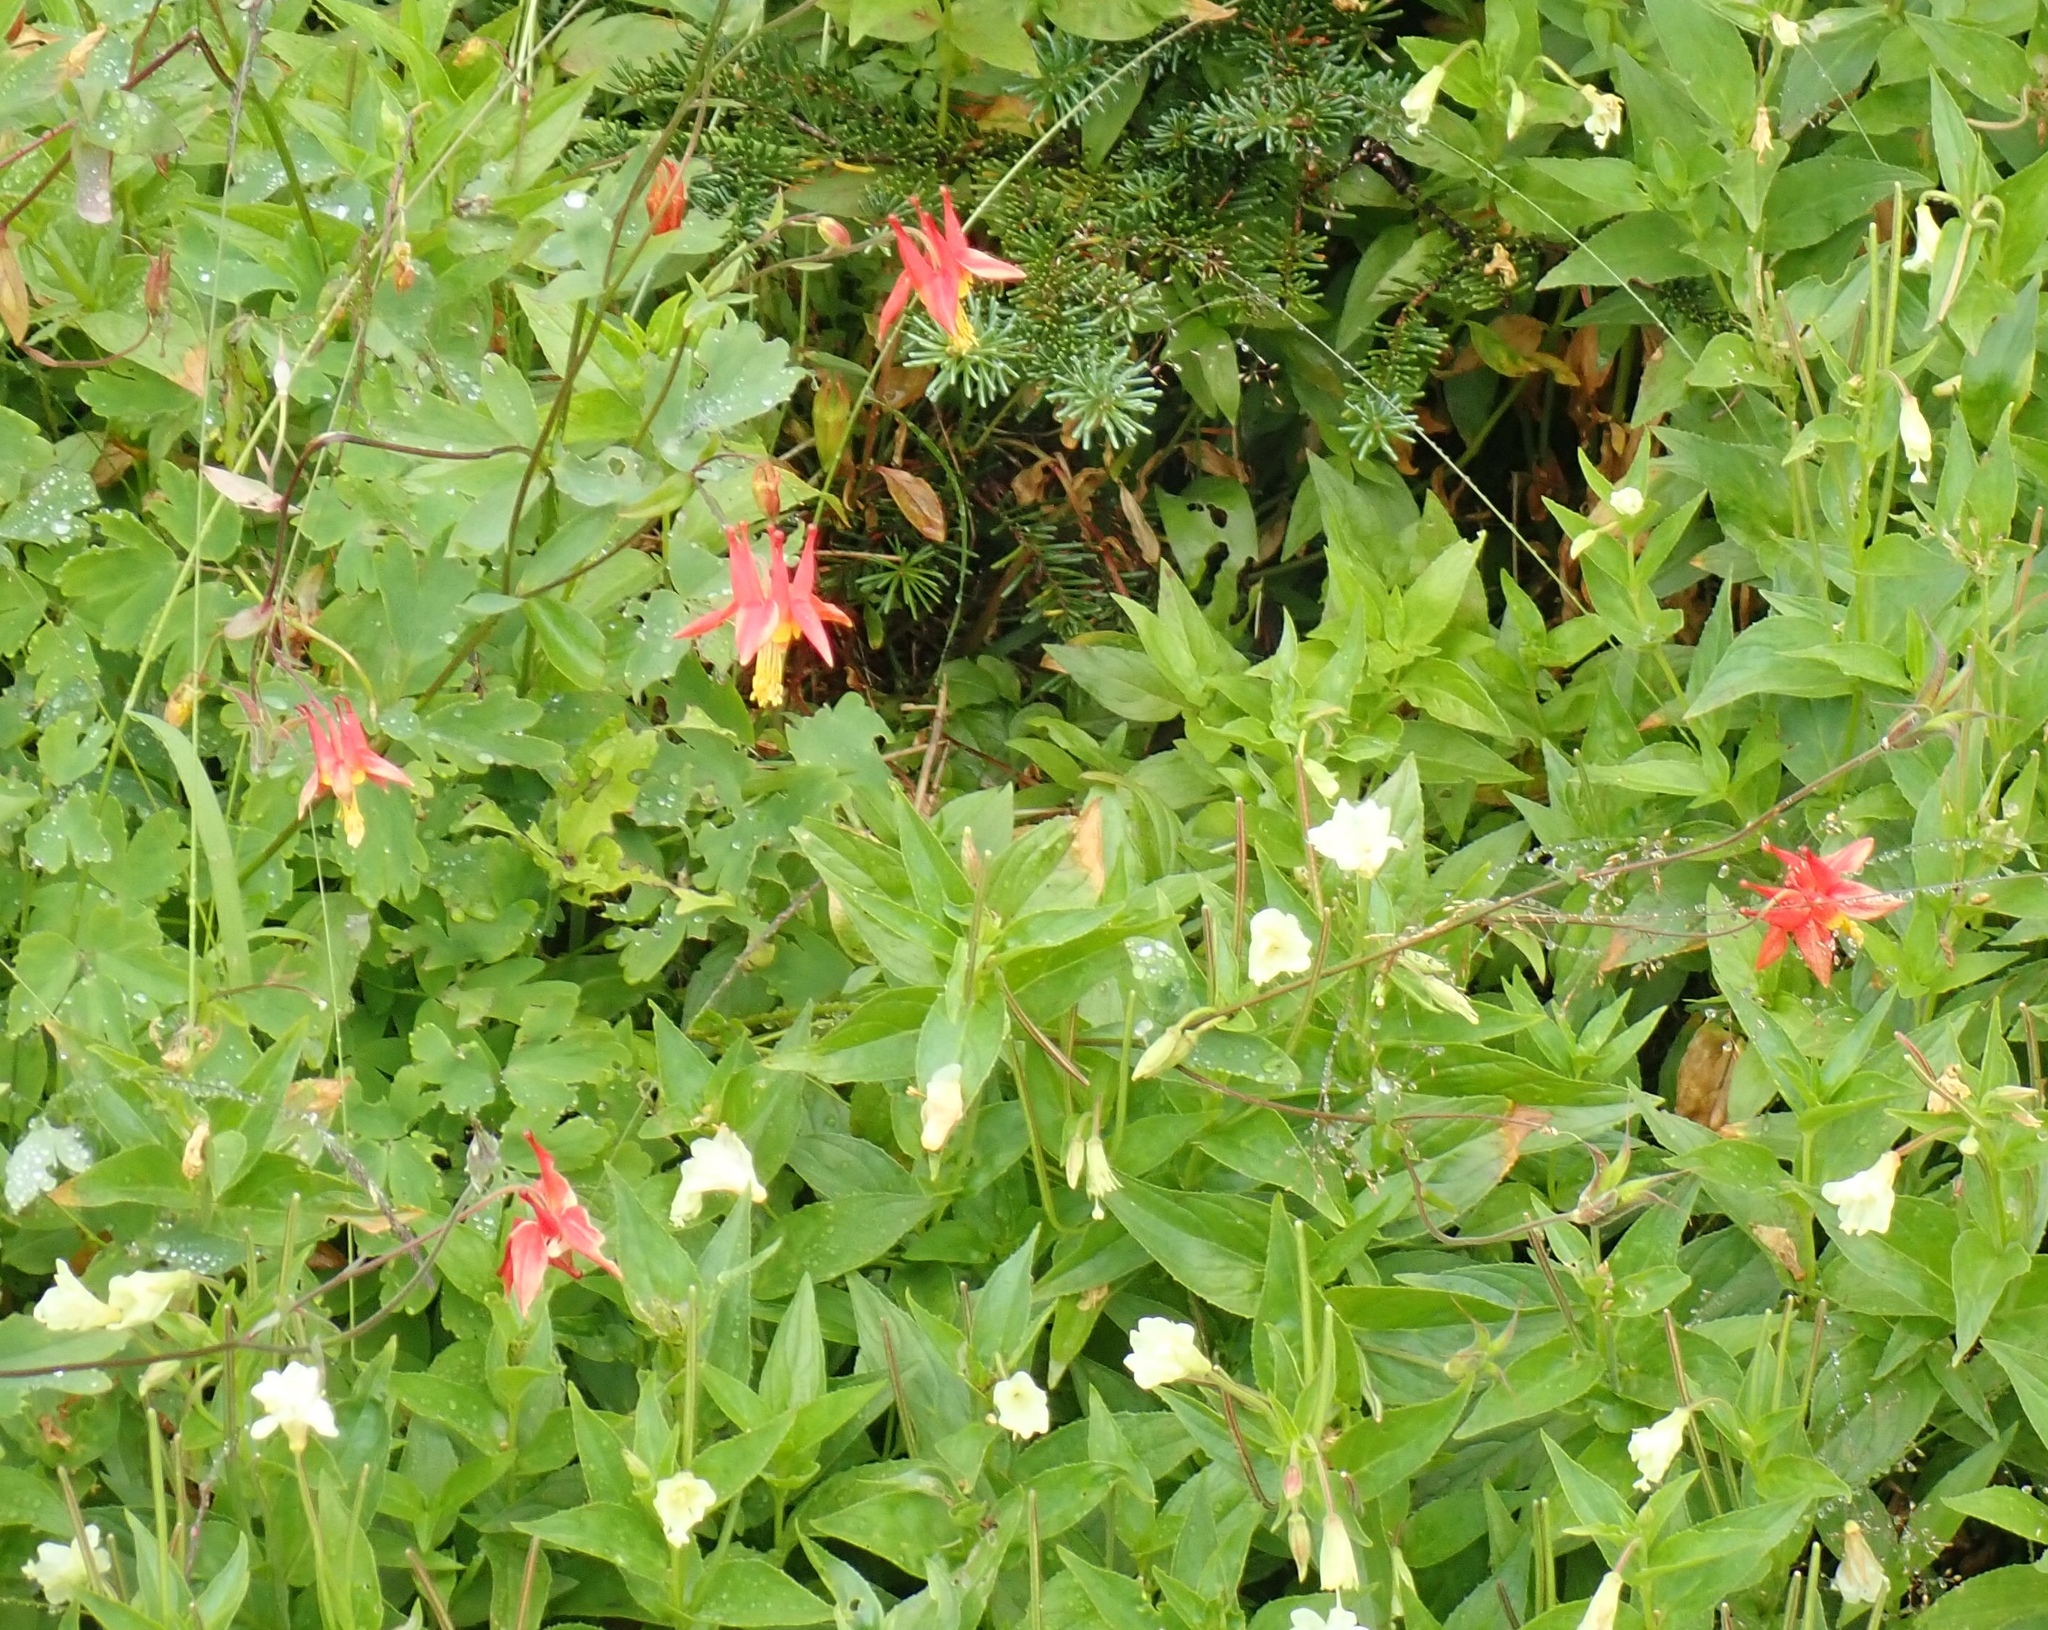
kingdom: Plantae
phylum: Tracheophyta
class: Magnoliopsida
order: Ranunculales
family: Ranunculaceae
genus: Aquilegia
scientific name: Aquilegia formosa
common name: Sitka columbine
